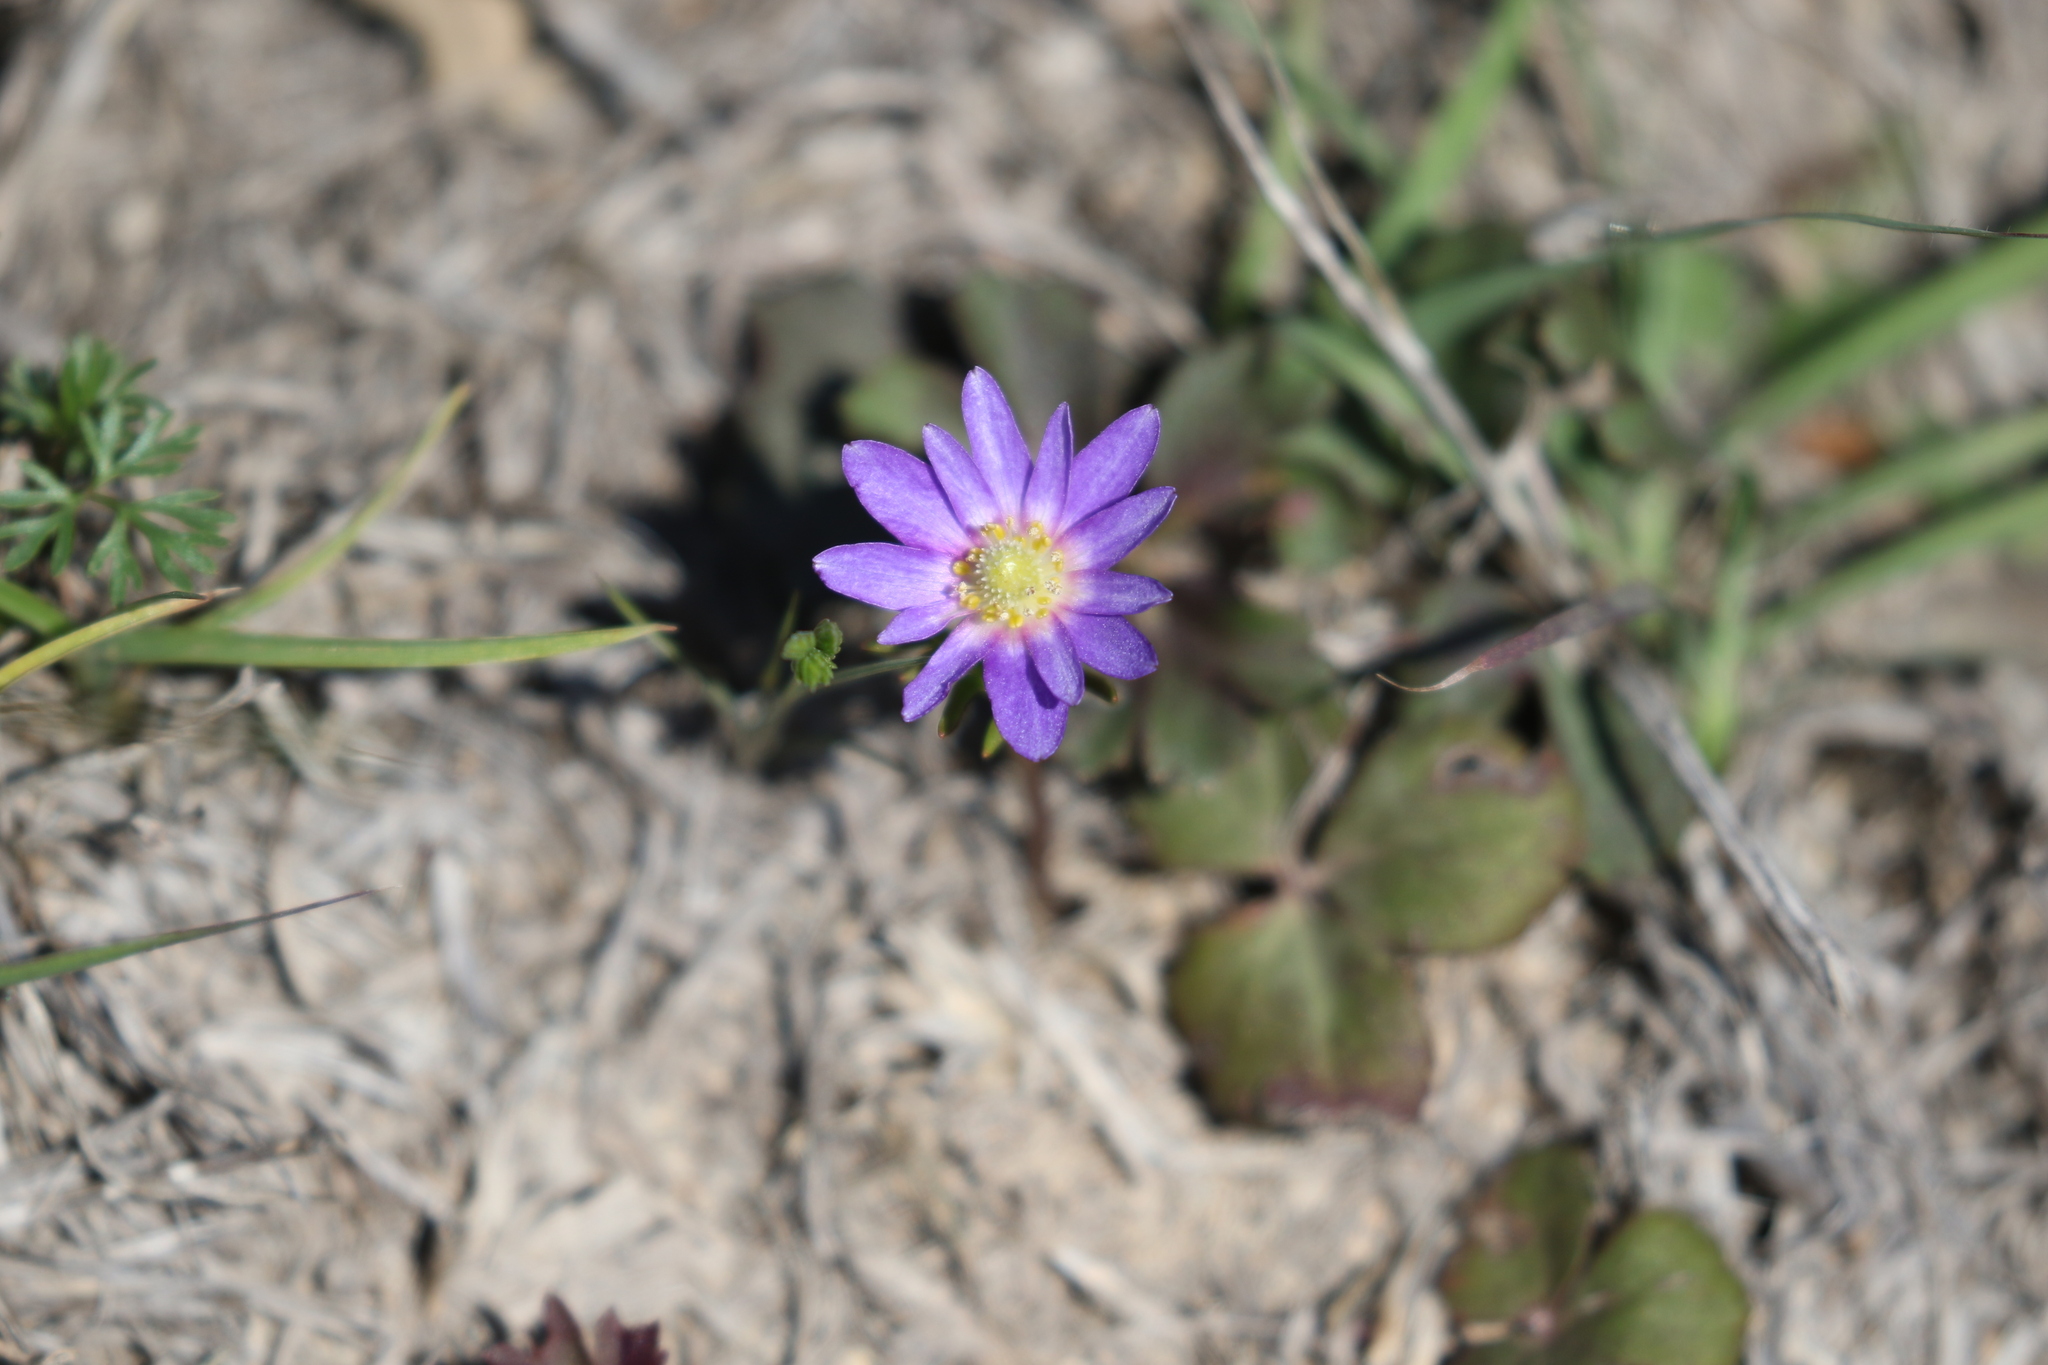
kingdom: Plantae
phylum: Tracheophyta
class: Magnoliopsida
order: Ranunculales
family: Ranunculaceae
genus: Anemone
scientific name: Anemone berlandieri
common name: Ten-petal anemone
